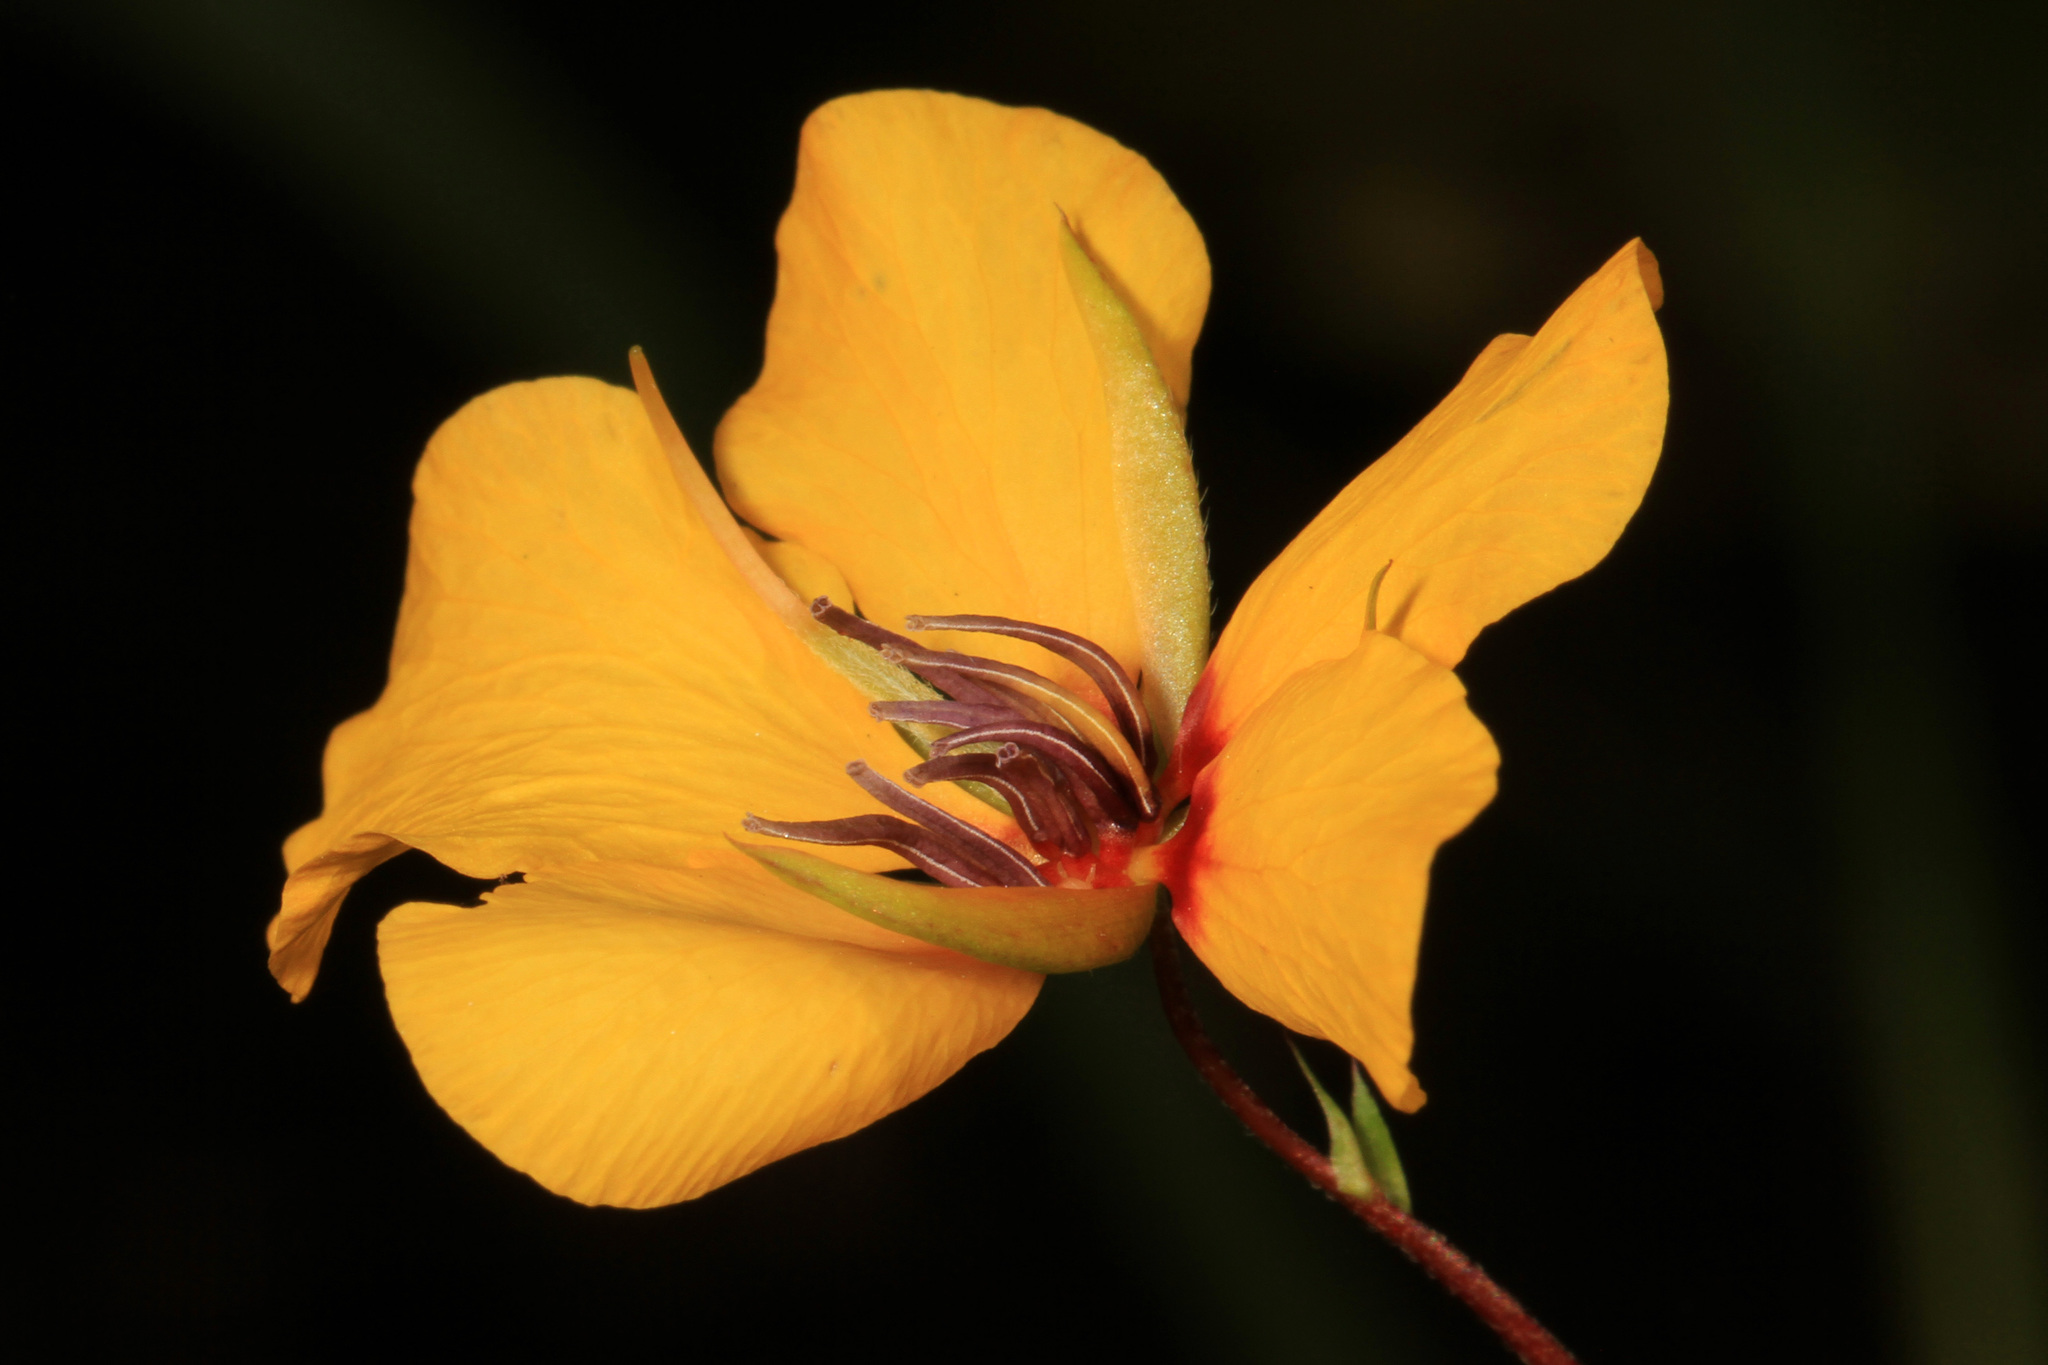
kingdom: Plantae
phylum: Tracheophyta
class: Magnoliopsida
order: Fabales
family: Fabaceae
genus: Chamaecrista
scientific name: Chamaecrista fasciculata
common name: Golden cassia
